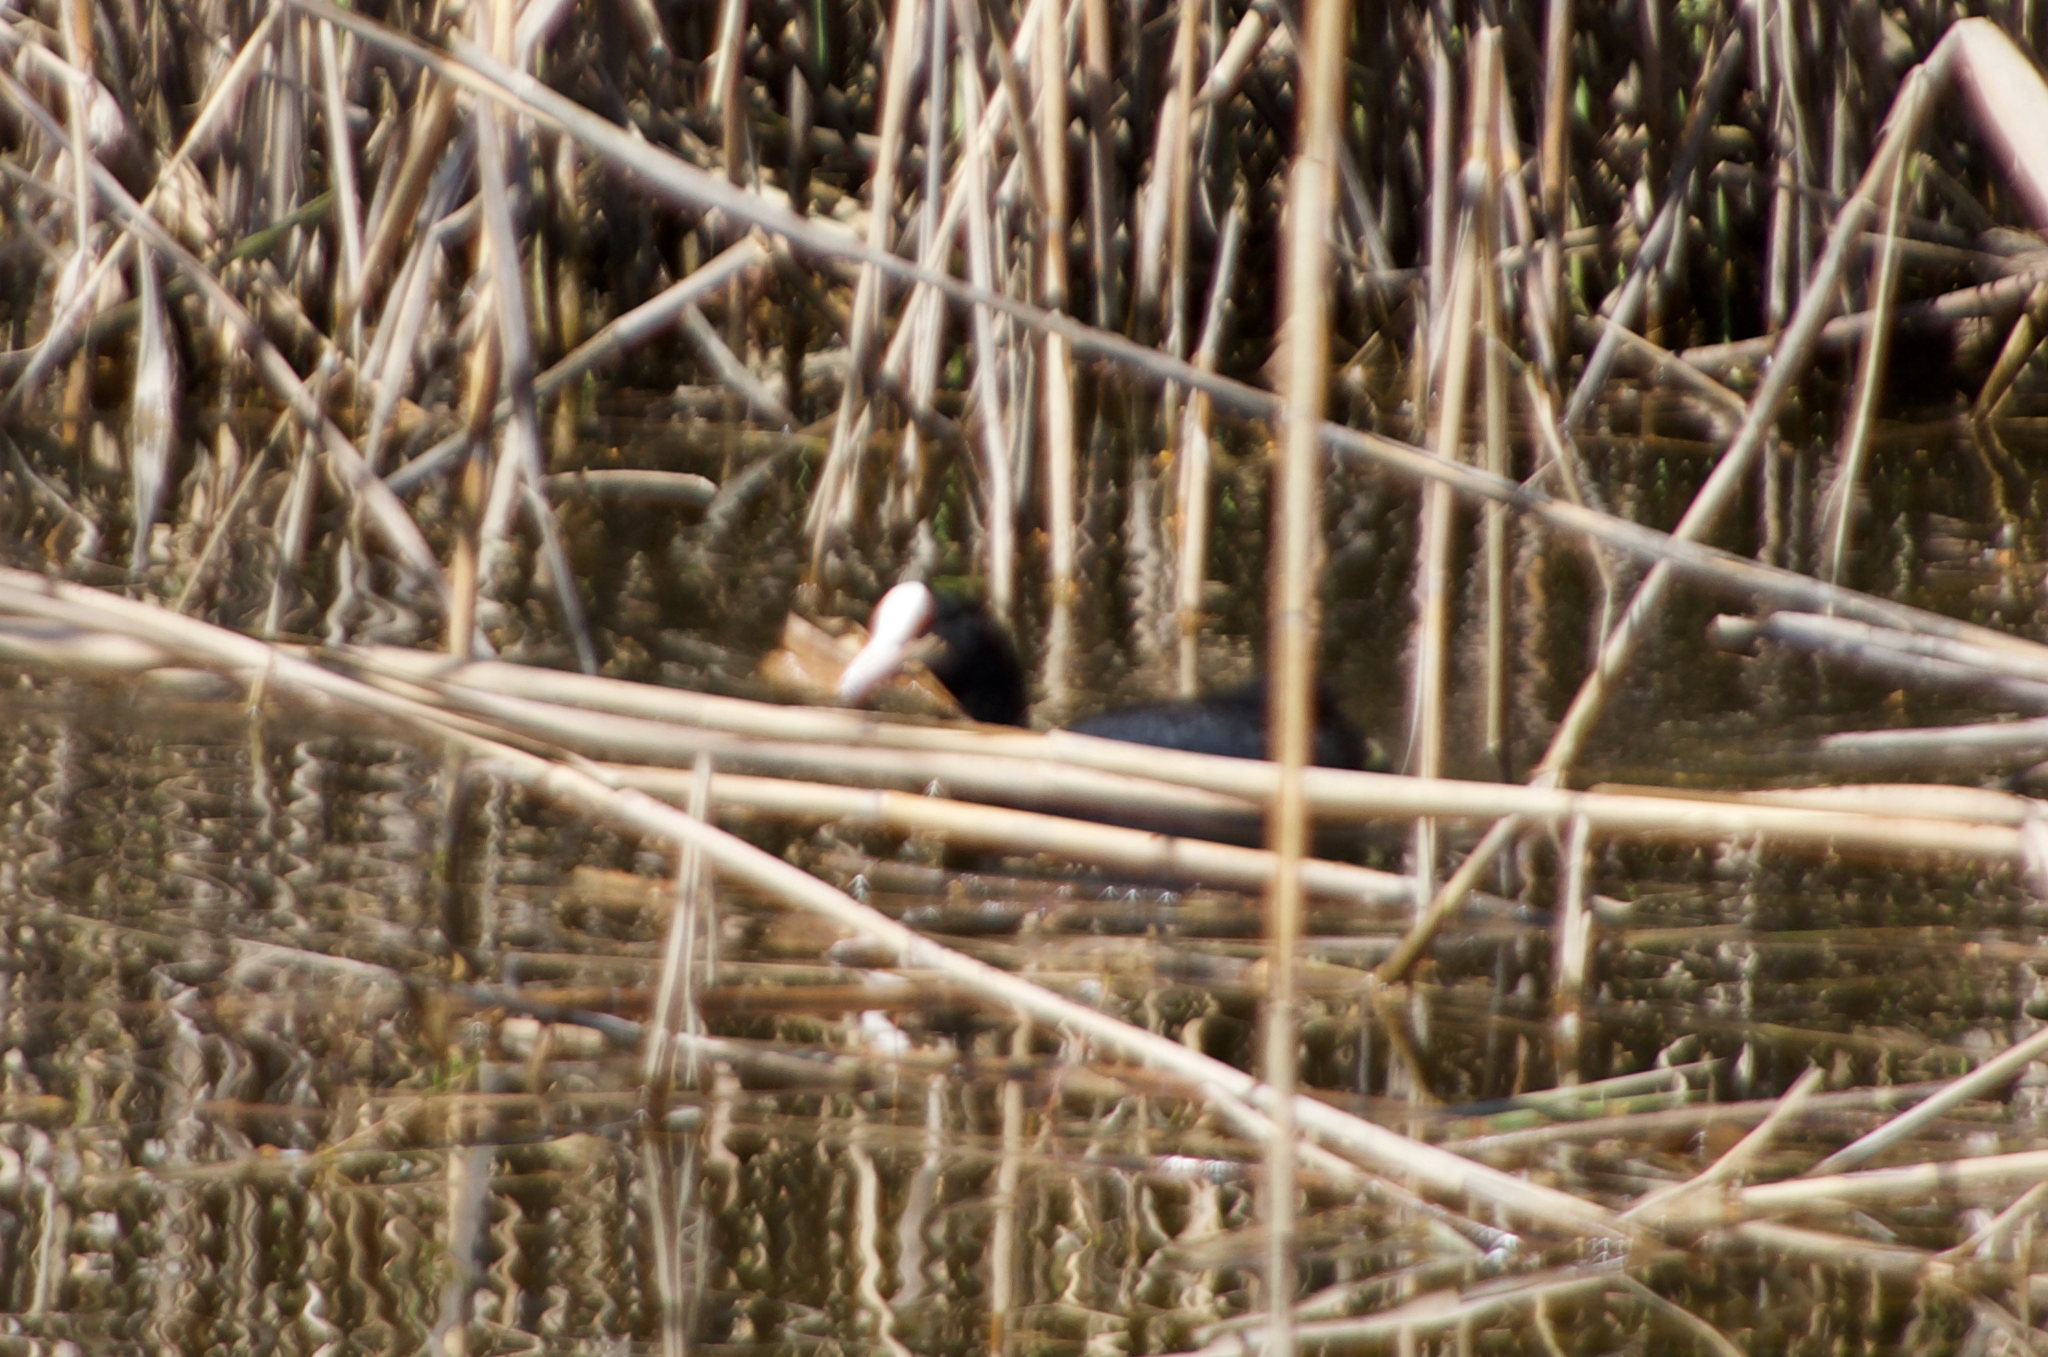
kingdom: Animalia
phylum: Chordata
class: Aves
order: Gruiformes
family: Rallidae
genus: Fulica
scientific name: Fulica atra
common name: Eurasian coot
